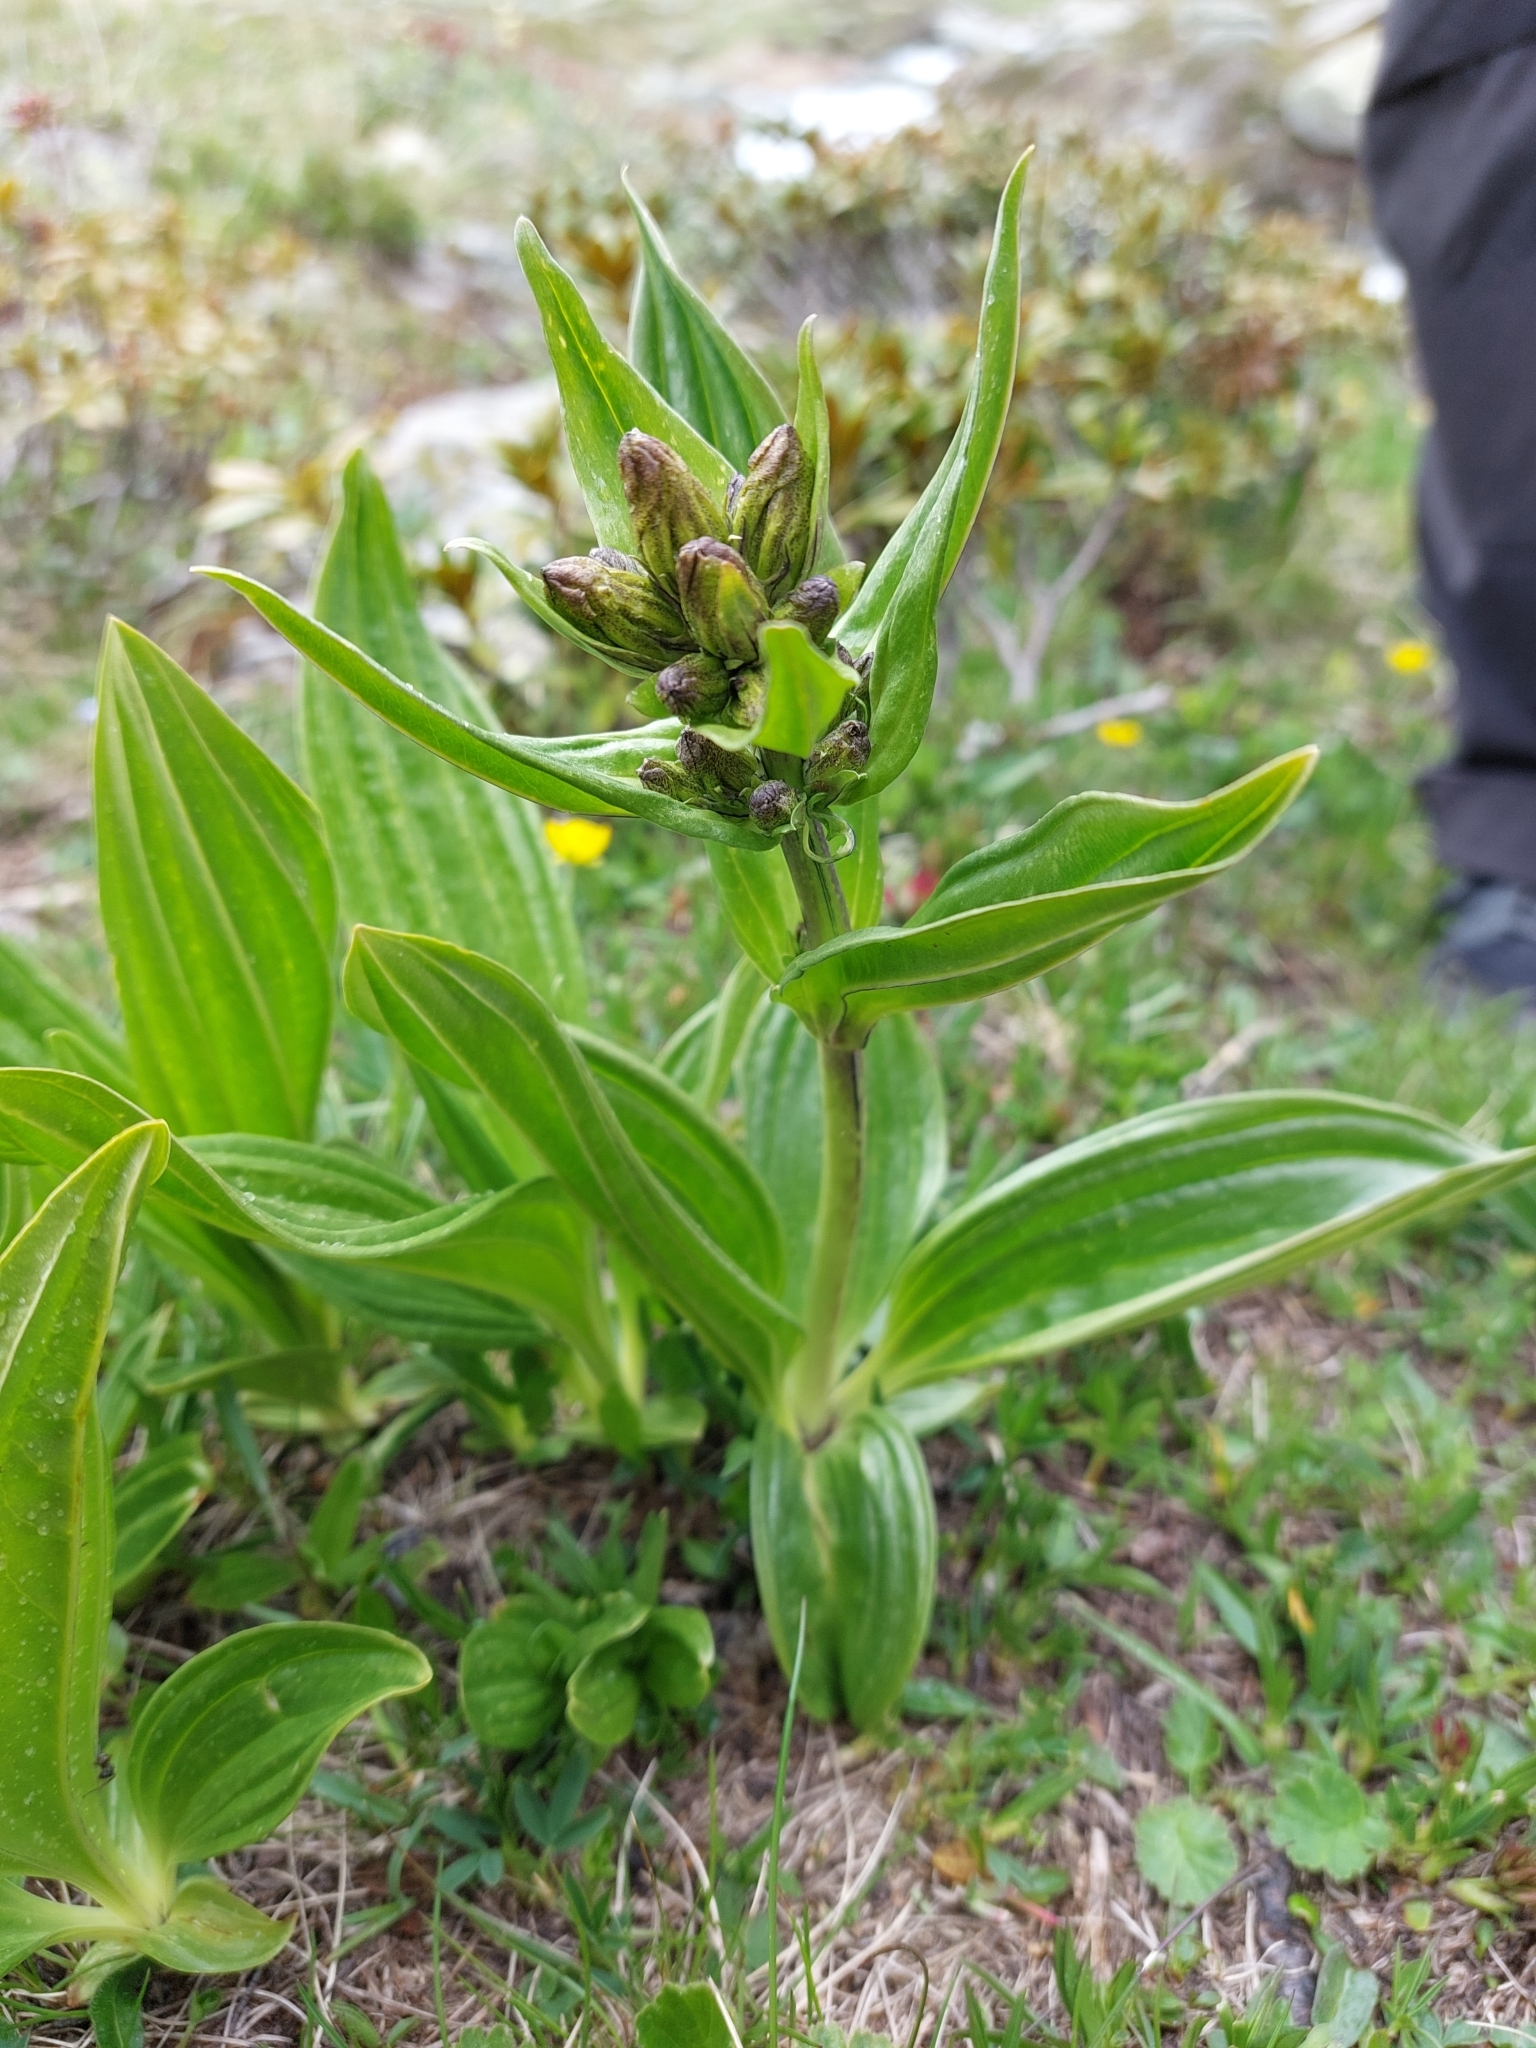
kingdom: Plantae
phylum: Tracheophyta
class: Magnoliopsida
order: Gentianales
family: Gentianaceae
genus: Gentiana
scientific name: Gentiana punctata
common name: Spotted gentian
